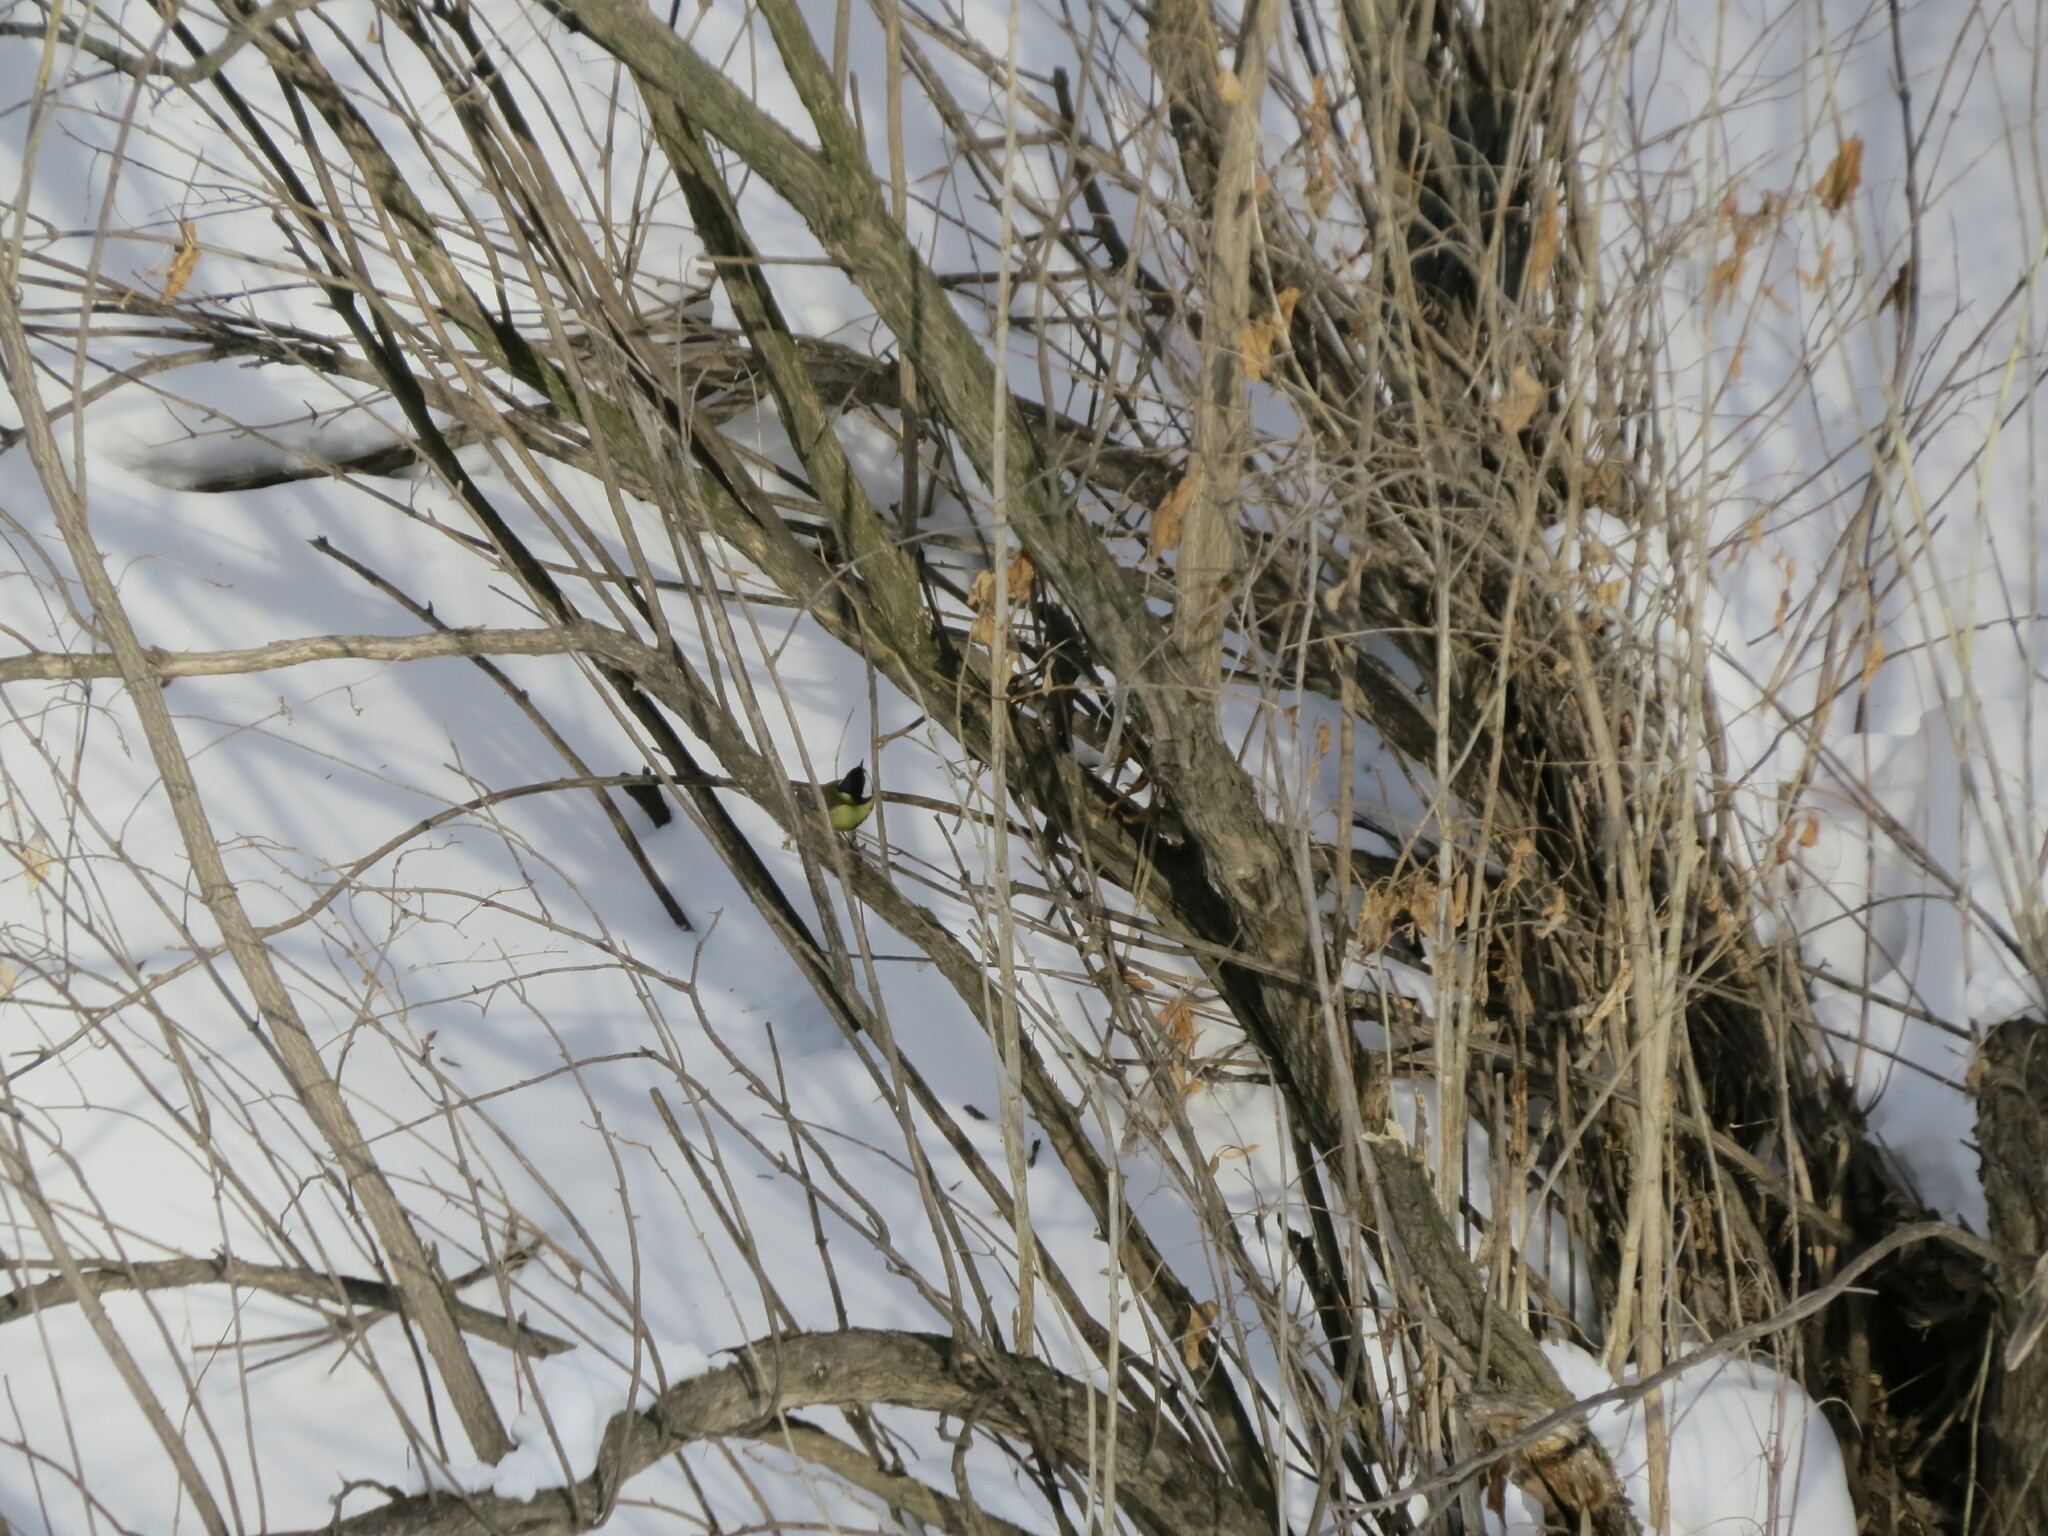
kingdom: Animalia
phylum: Chordata
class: Aves
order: Passeriformes
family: Paridae
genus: Parus
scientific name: Parus major
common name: Great tit
